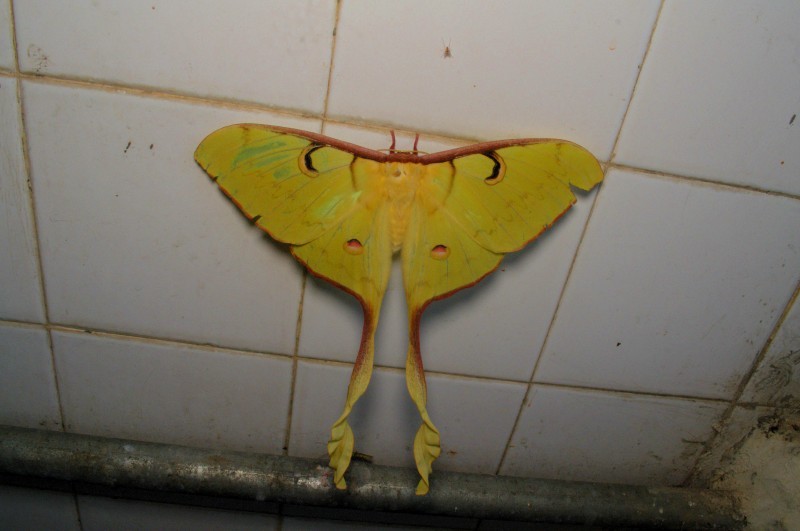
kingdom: Animalia
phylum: Arthropoda
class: Insecta
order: Lepidoptera
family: Saturniidae
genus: Actias
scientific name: Actias maenas
